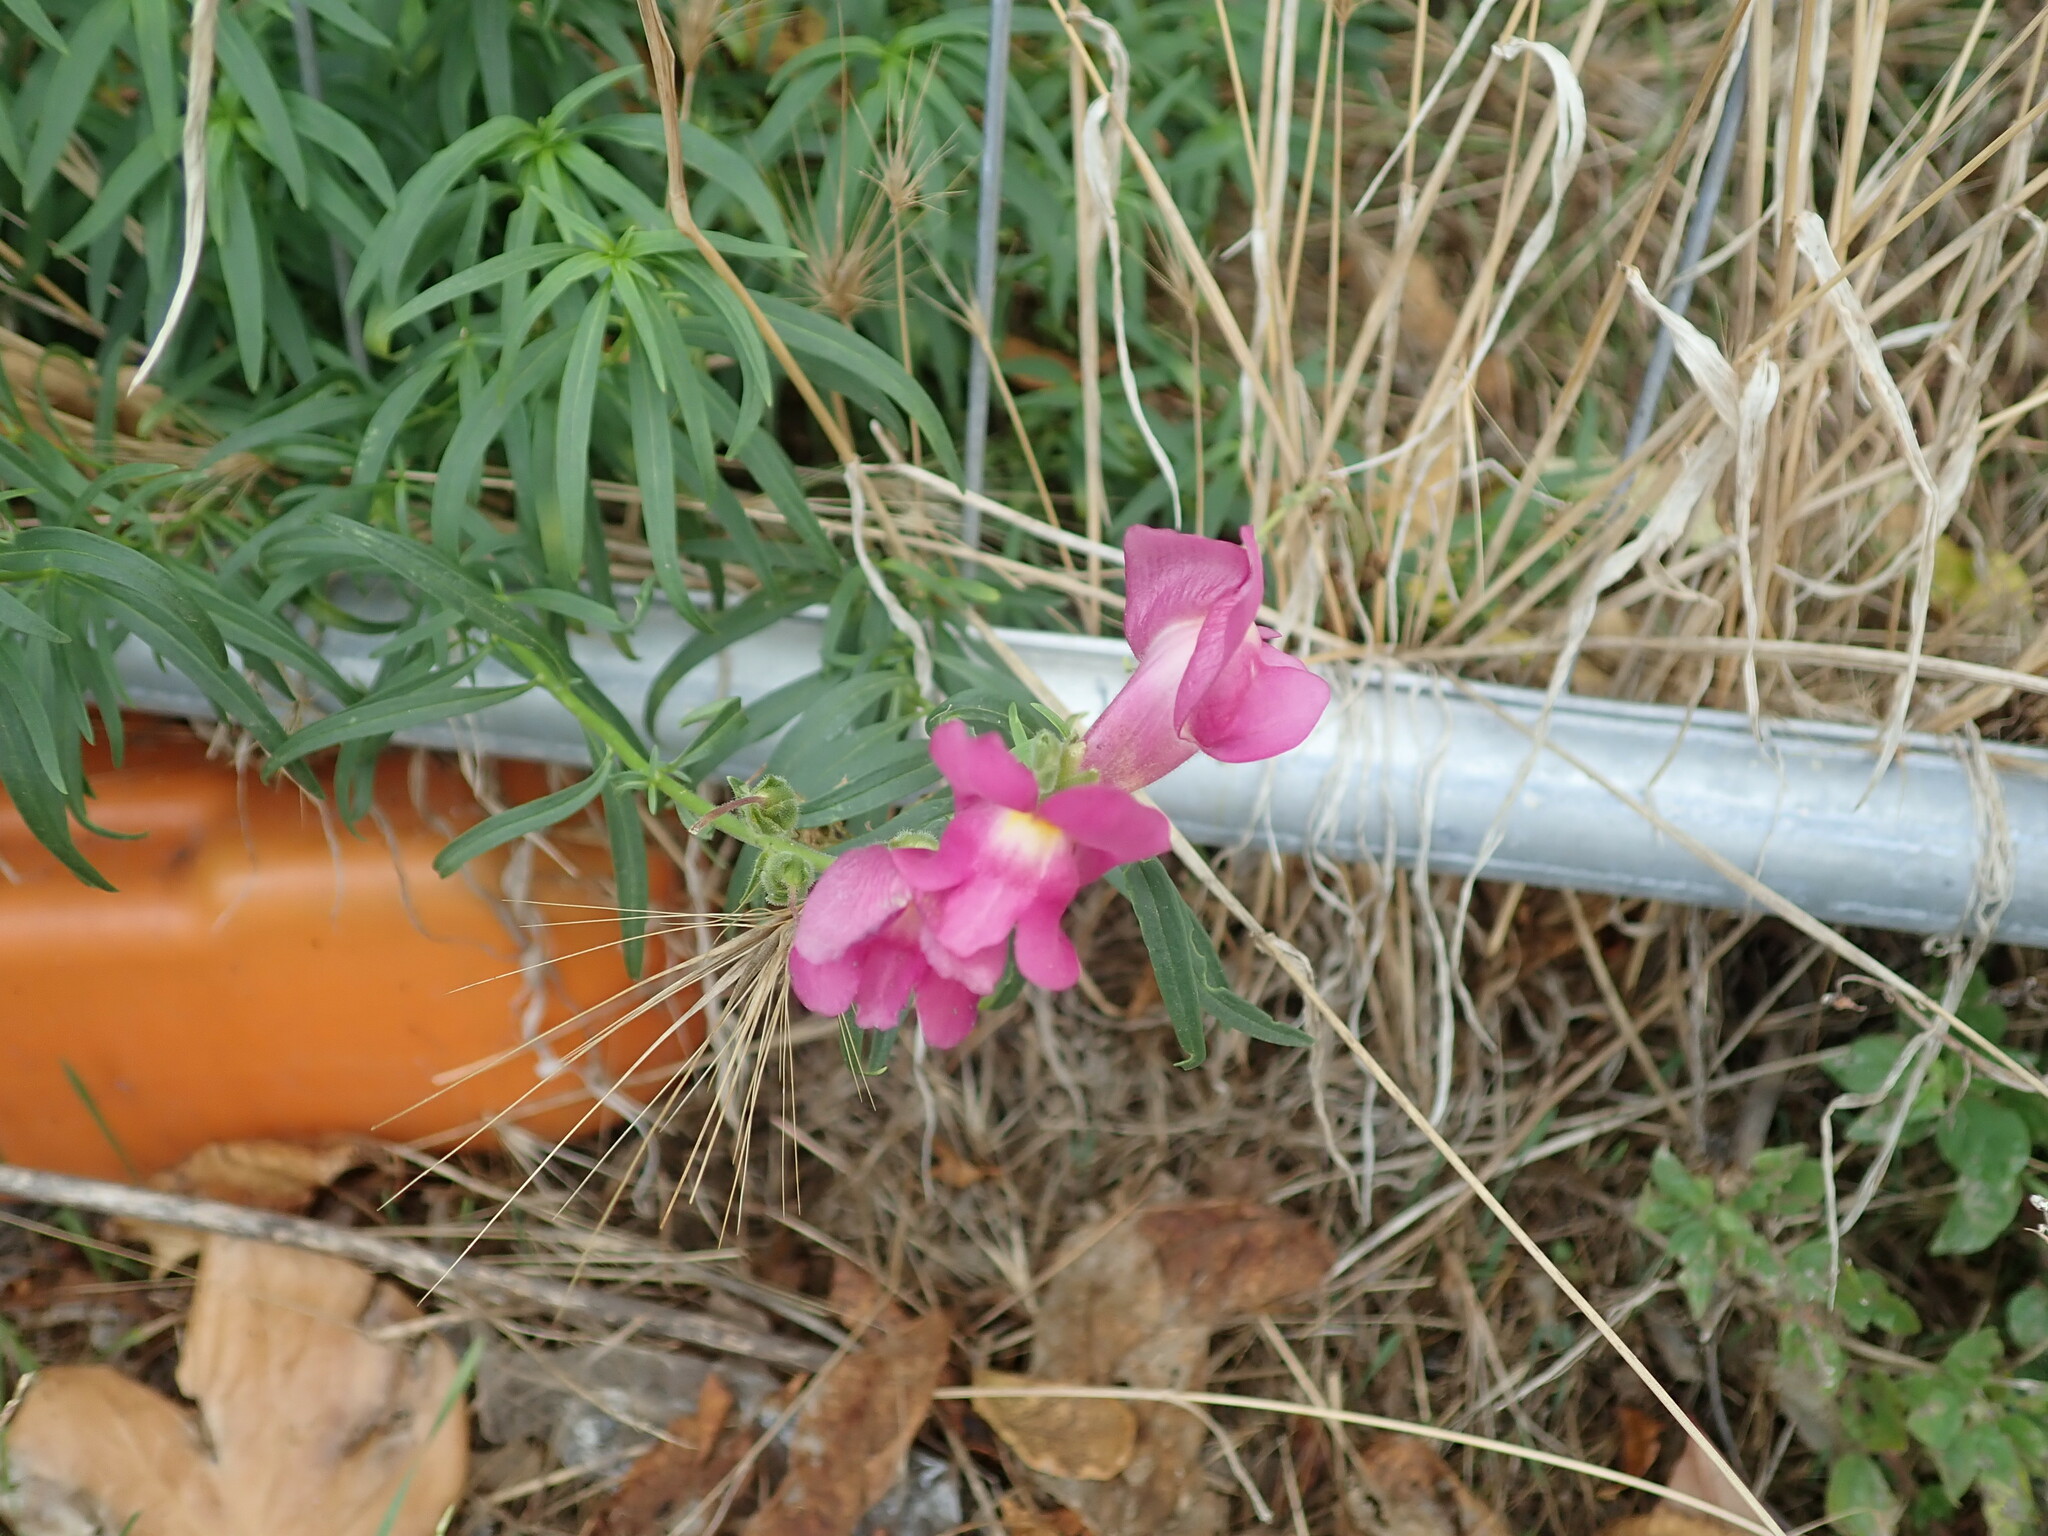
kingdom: Plantae
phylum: Tracheophyta
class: Magnoliopsida
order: Lamiales
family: Plantaginaceae
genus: Antirrhinum
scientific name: Antirrhinum tortuosum
